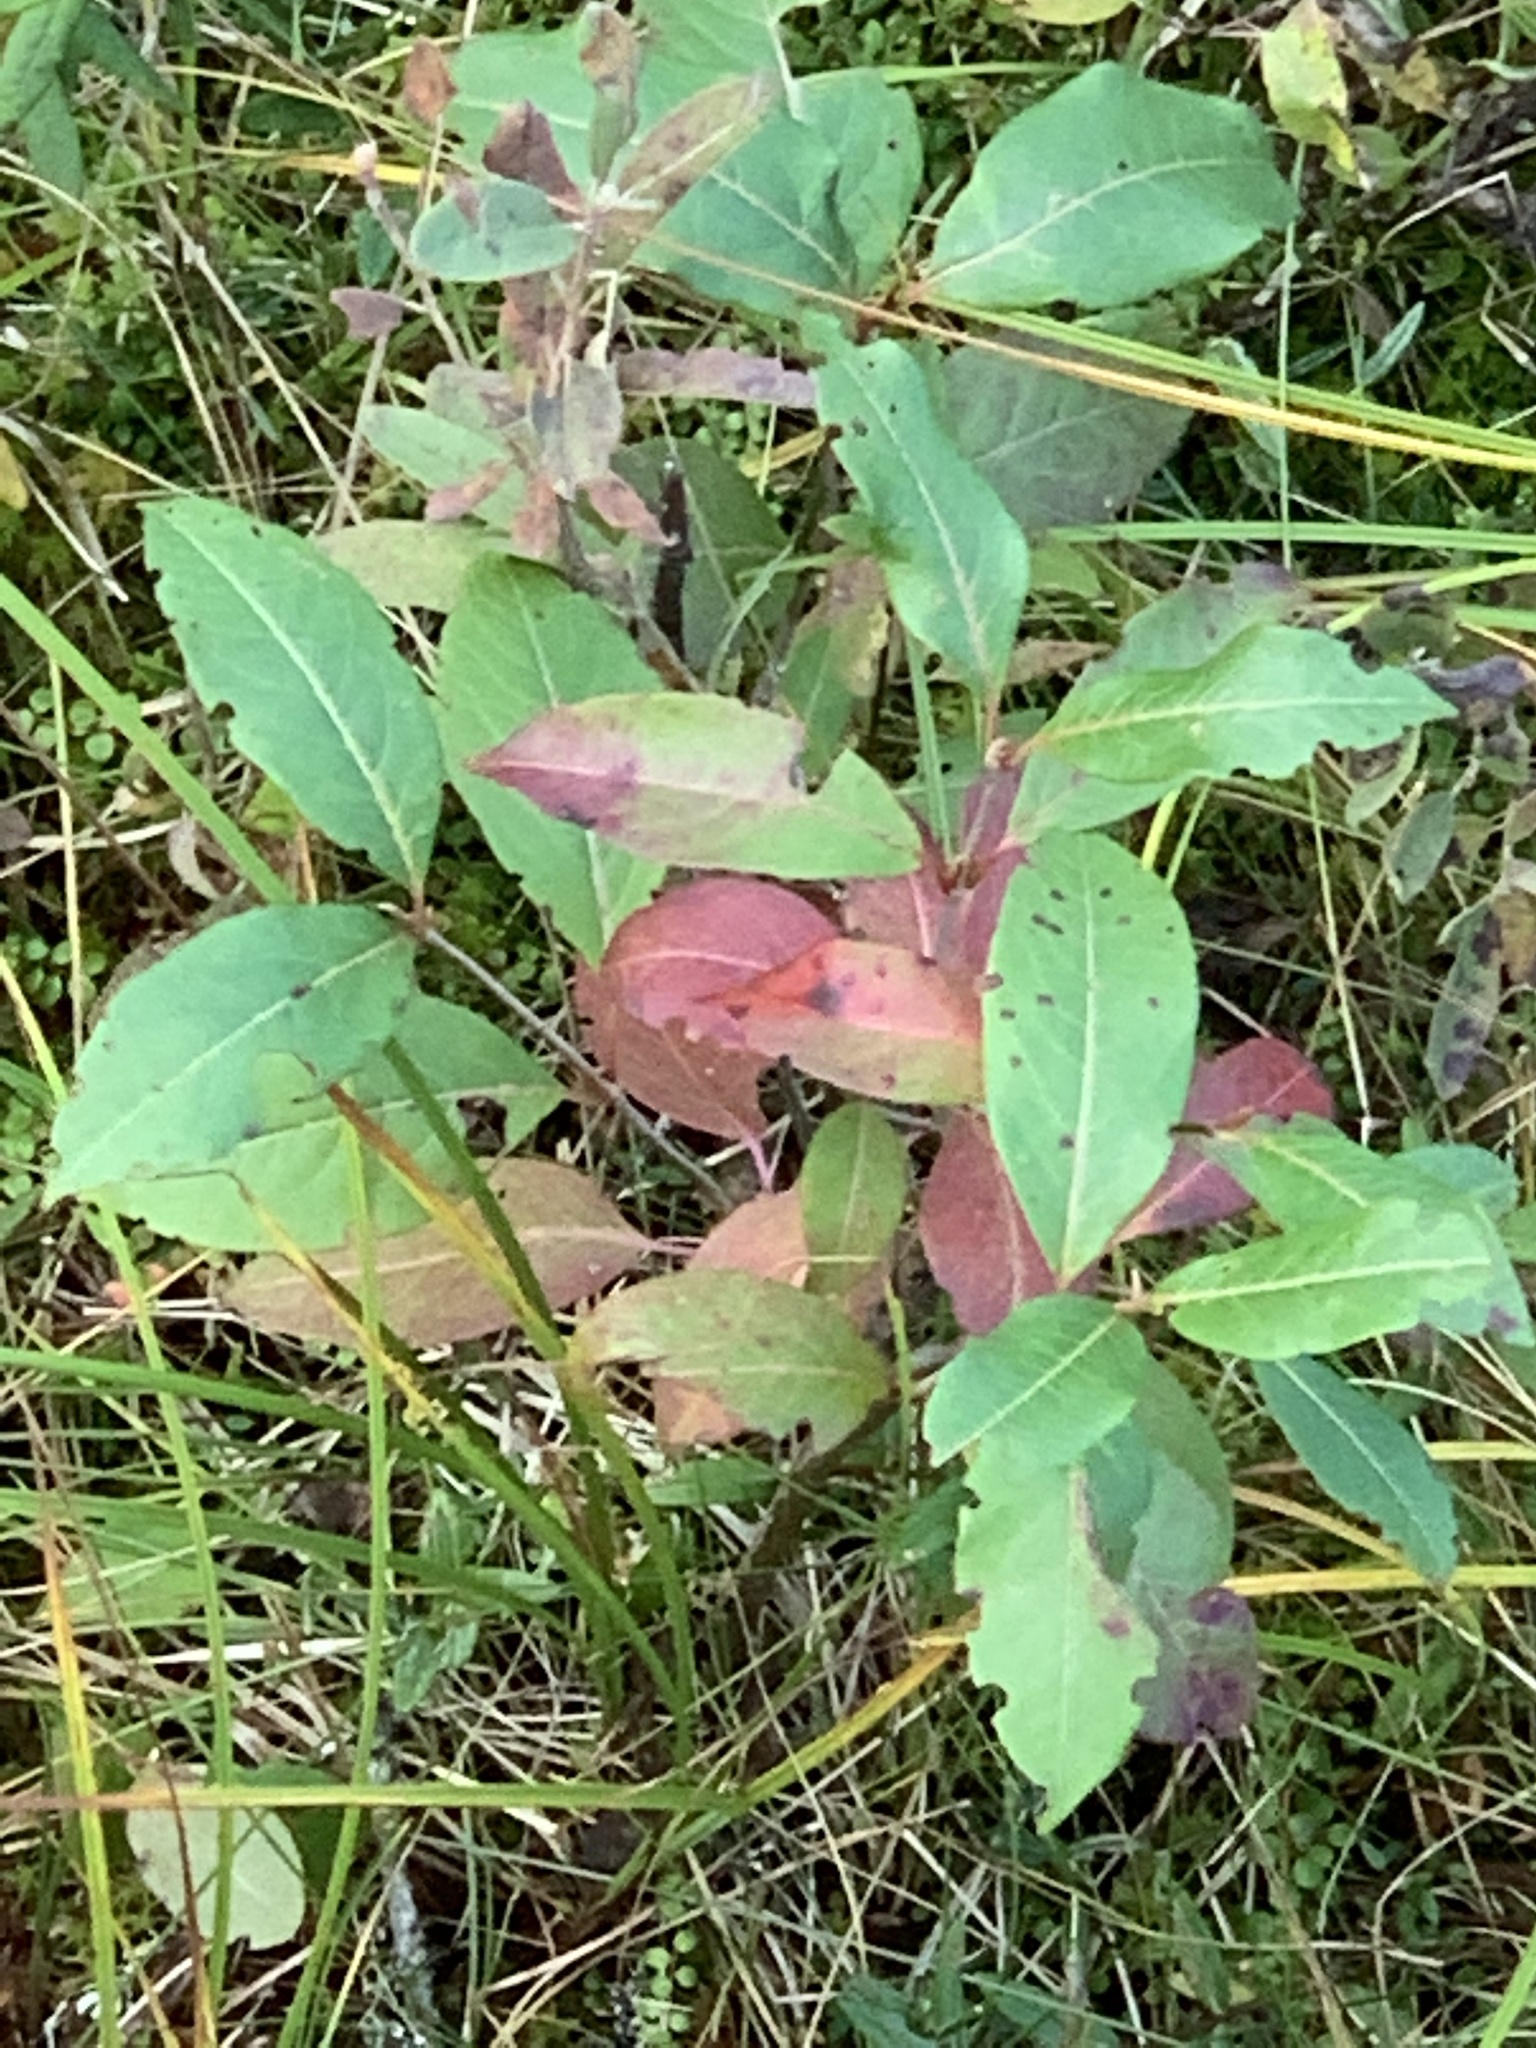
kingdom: Plantae
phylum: Tracheophyta
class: Magnoliopsida
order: Dipsacales
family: Viburnaceae
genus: Viburnum
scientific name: Viburnum cassinoides
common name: Swamp haw
